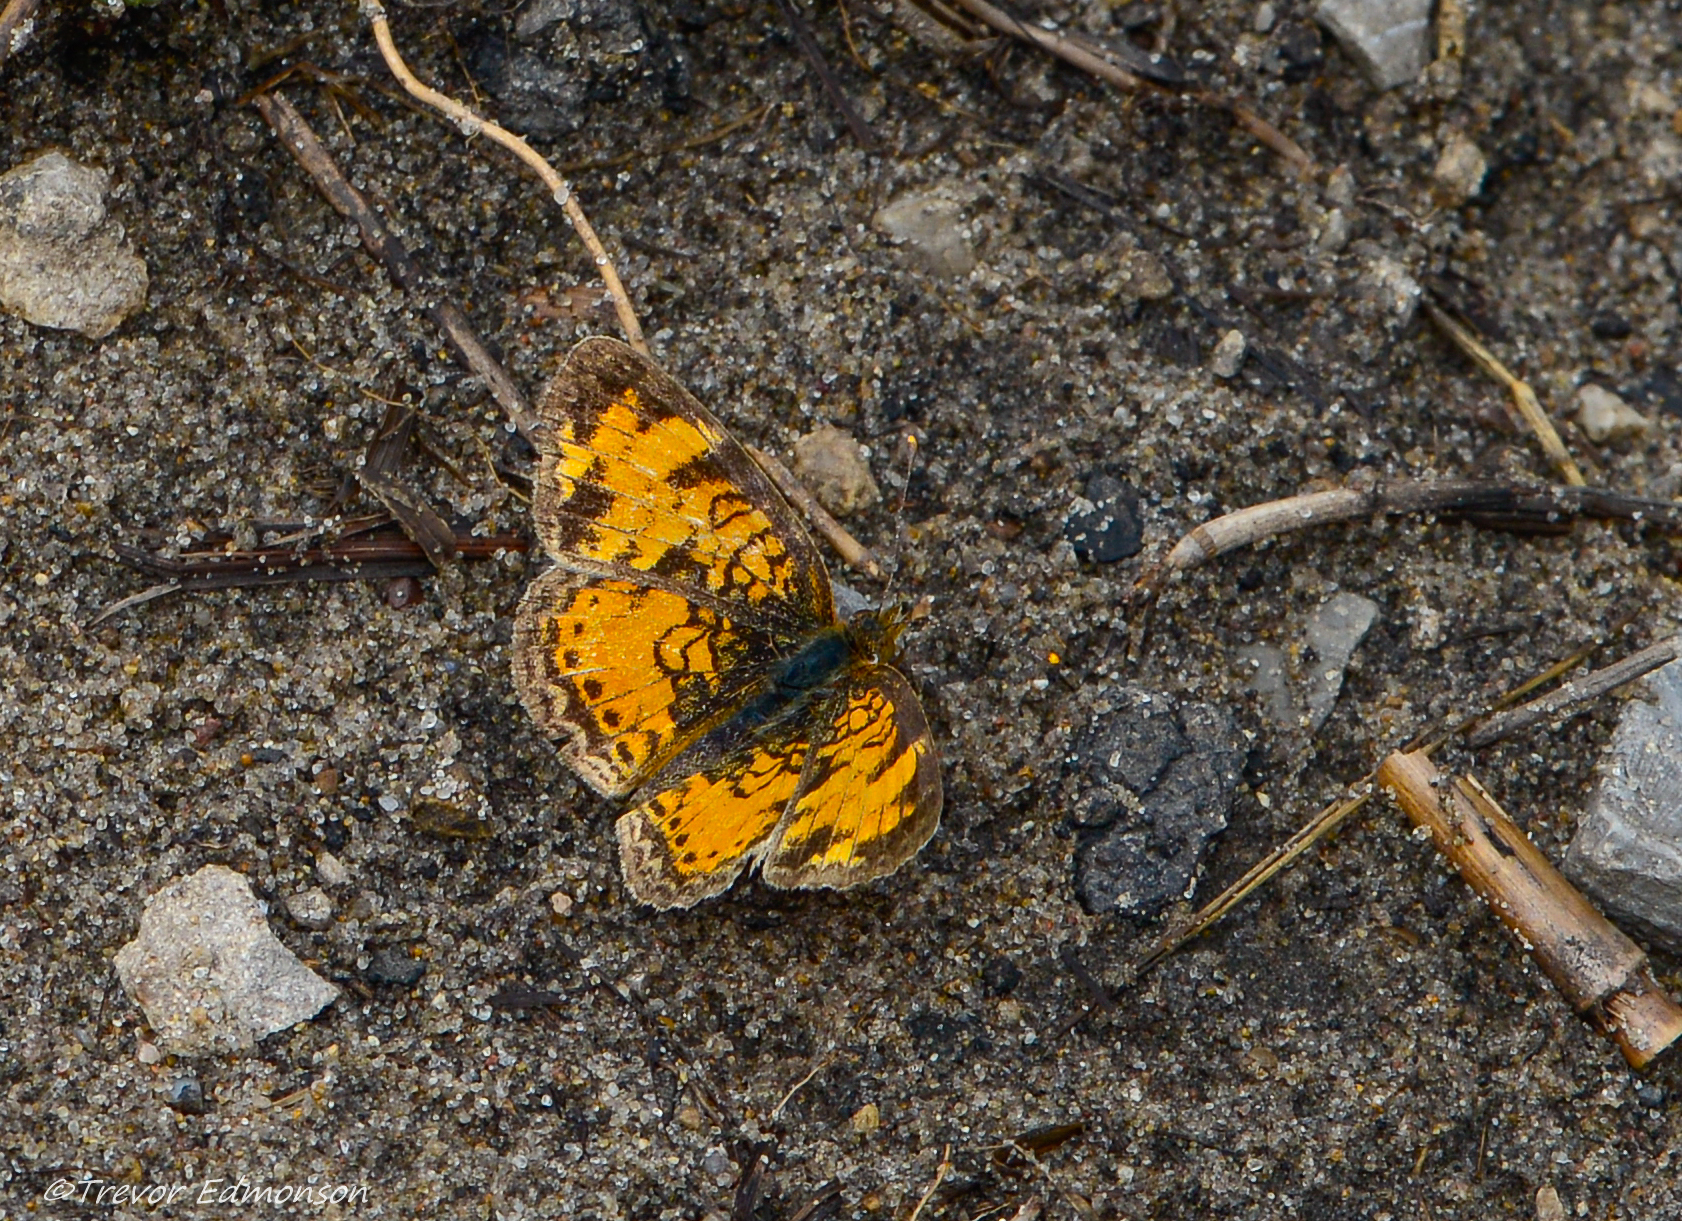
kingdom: Animalia
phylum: Arthropoda
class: Insecta
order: Lepidoptera
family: Nymphalidae
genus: Phyciodes
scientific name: Phyciodes tharos
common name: Pearl crescent
